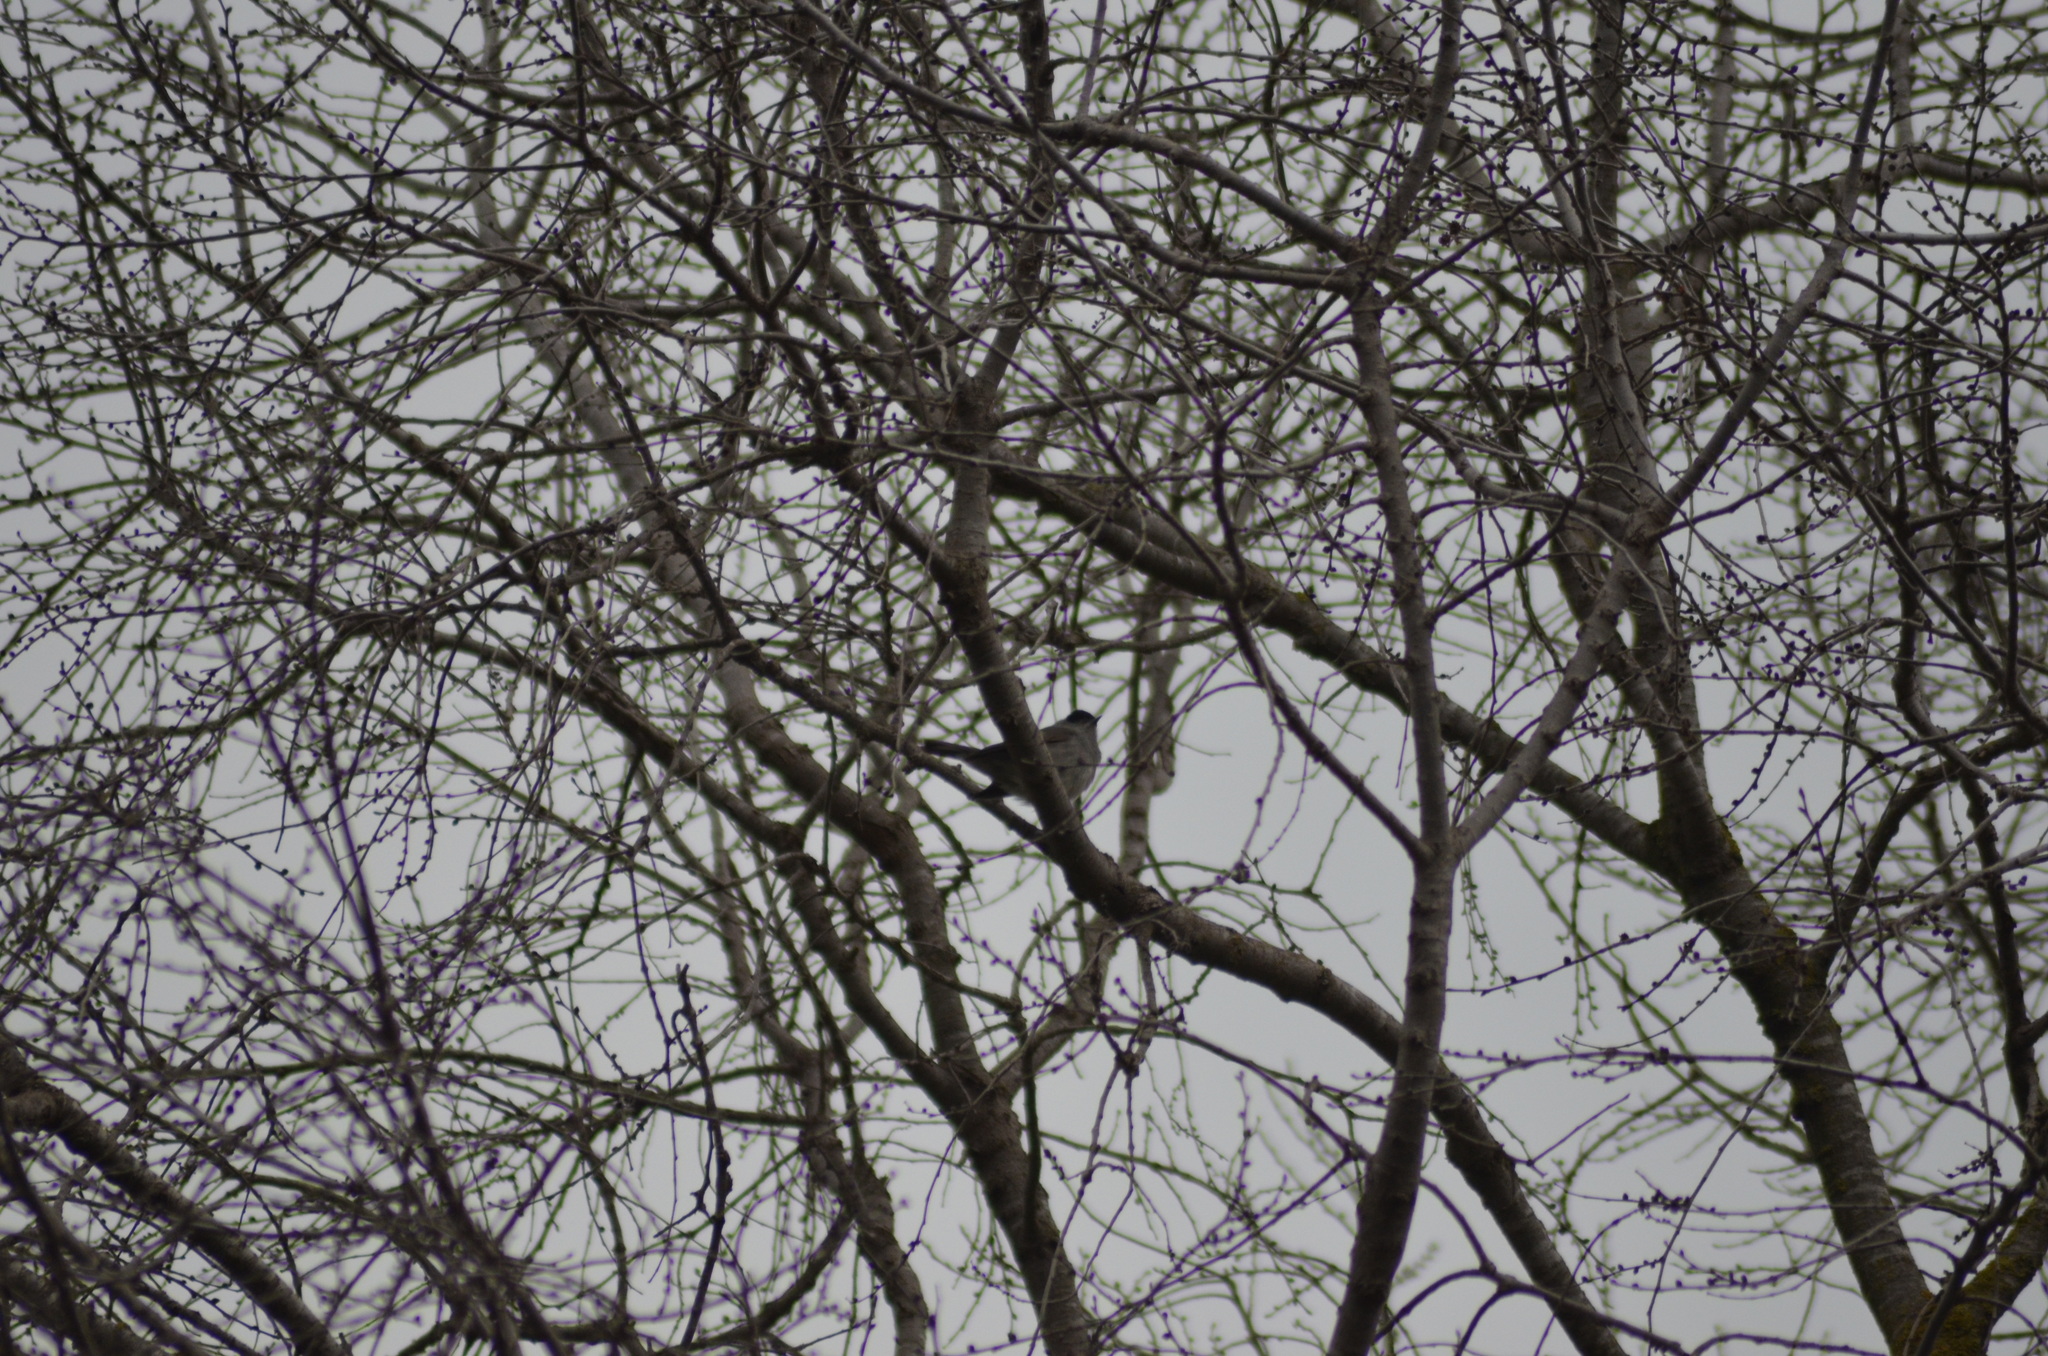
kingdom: Animalia
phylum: Chordata
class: Aves
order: Passeriformes
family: Sylviidae
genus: Sylvia
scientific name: Sylvia atricapilla
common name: Eurasian blackcap
